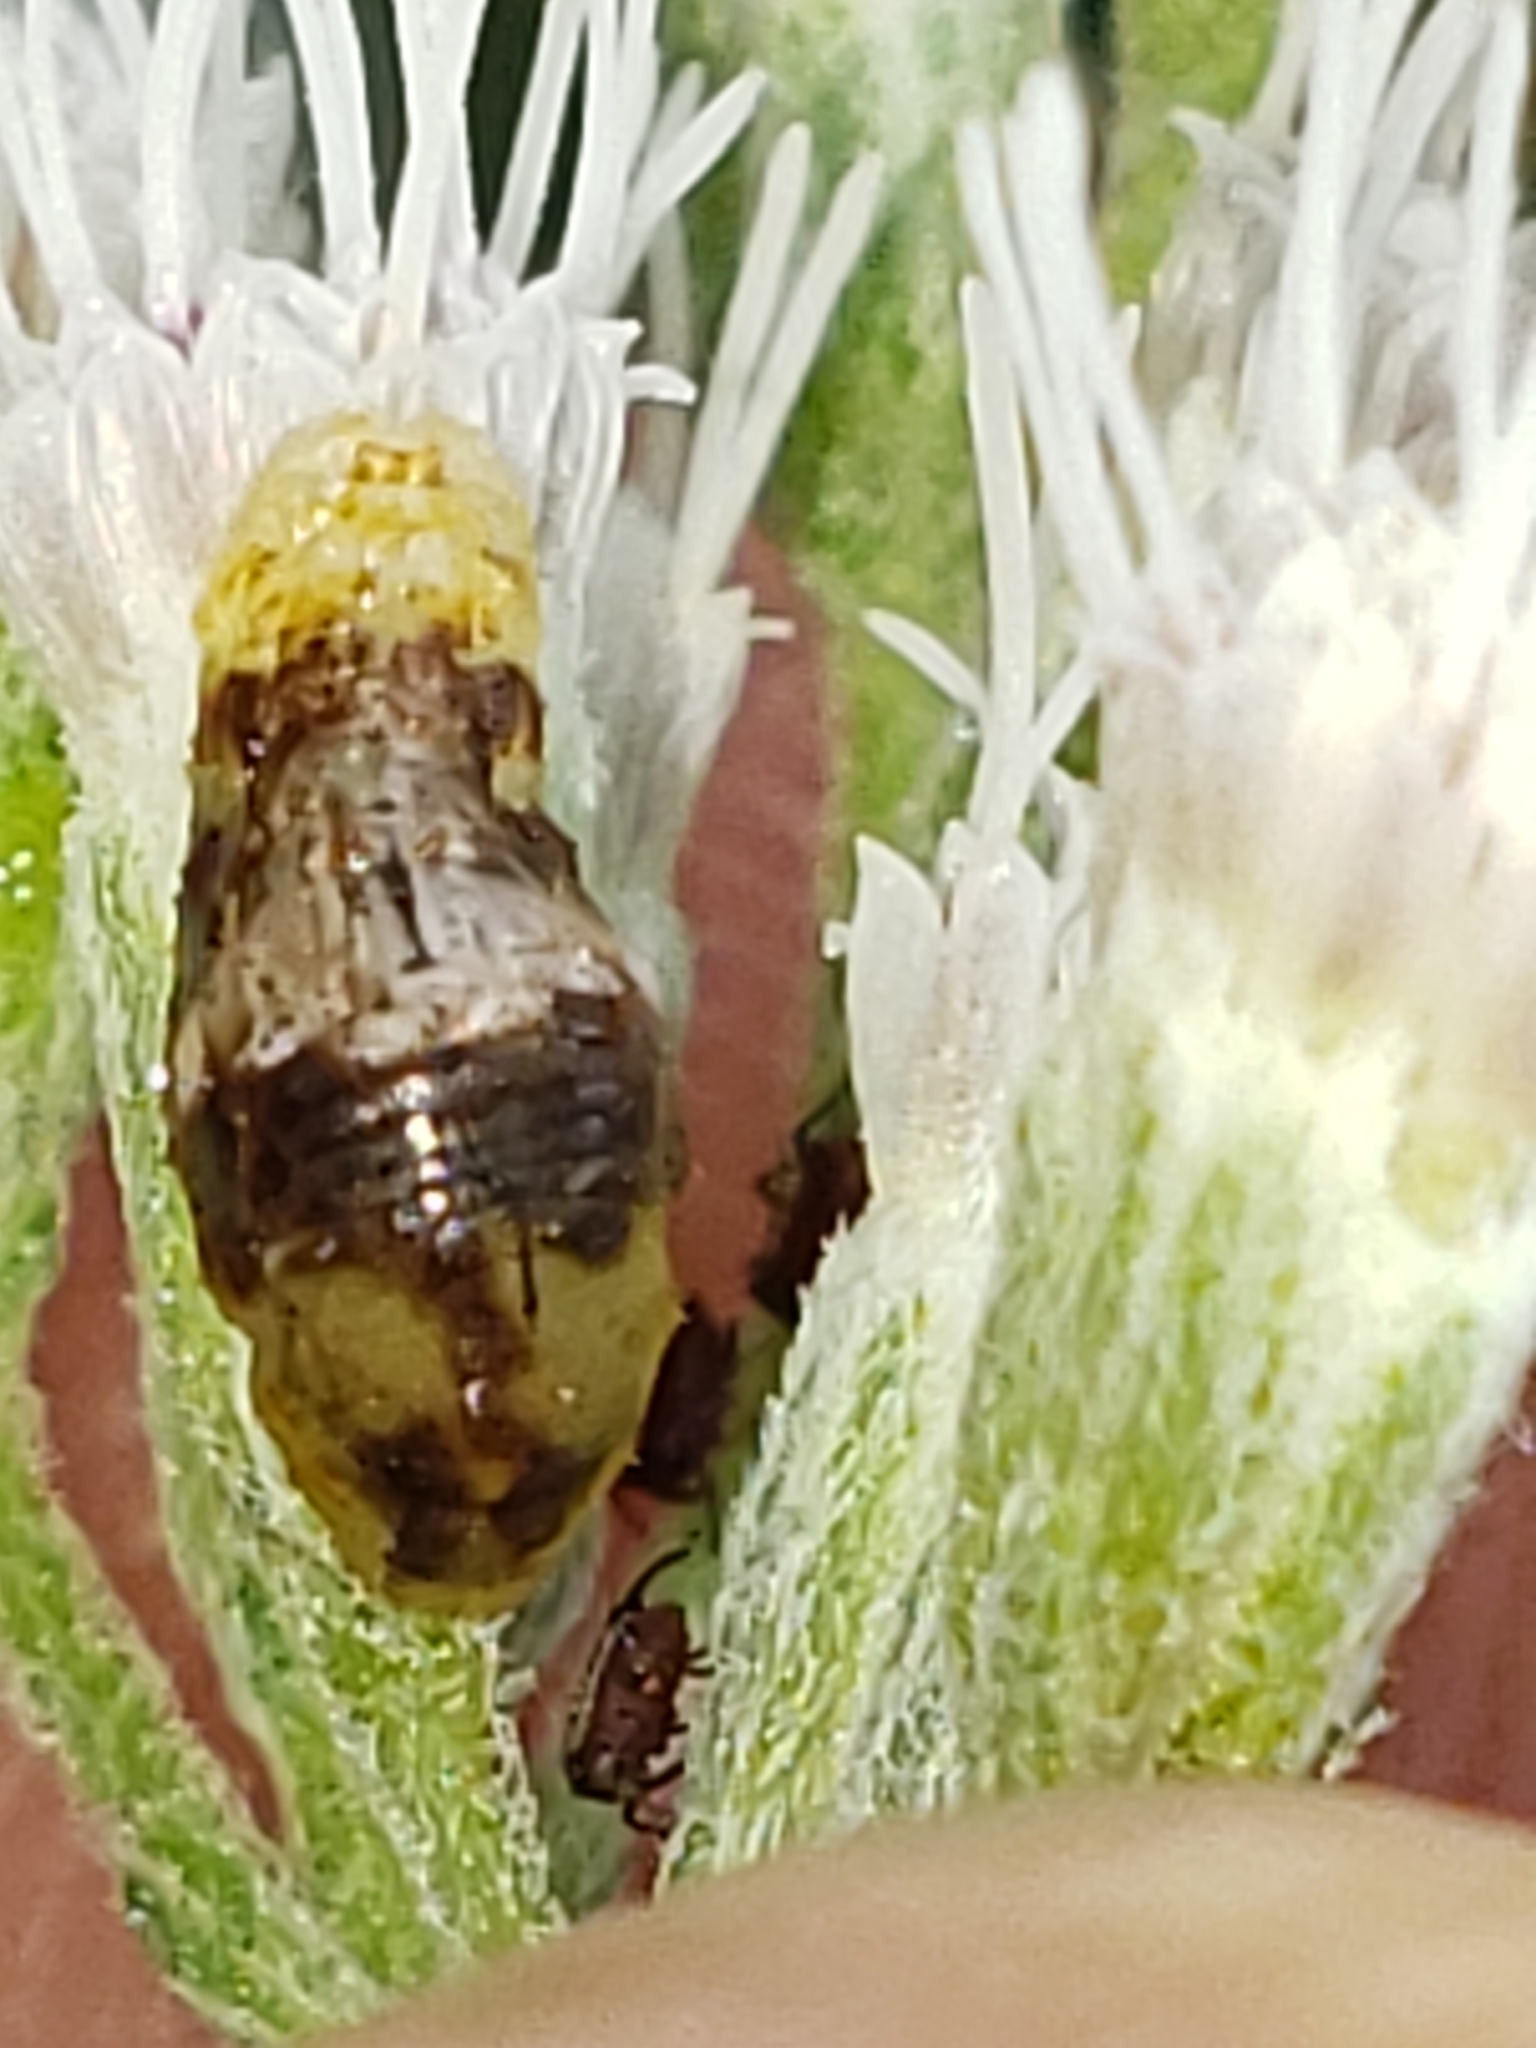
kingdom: Animalia
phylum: Arthropoda
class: Insecta
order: Diptera
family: Syrphidae
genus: Ocyptamus
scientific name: Ocyptamus fuscipennis
